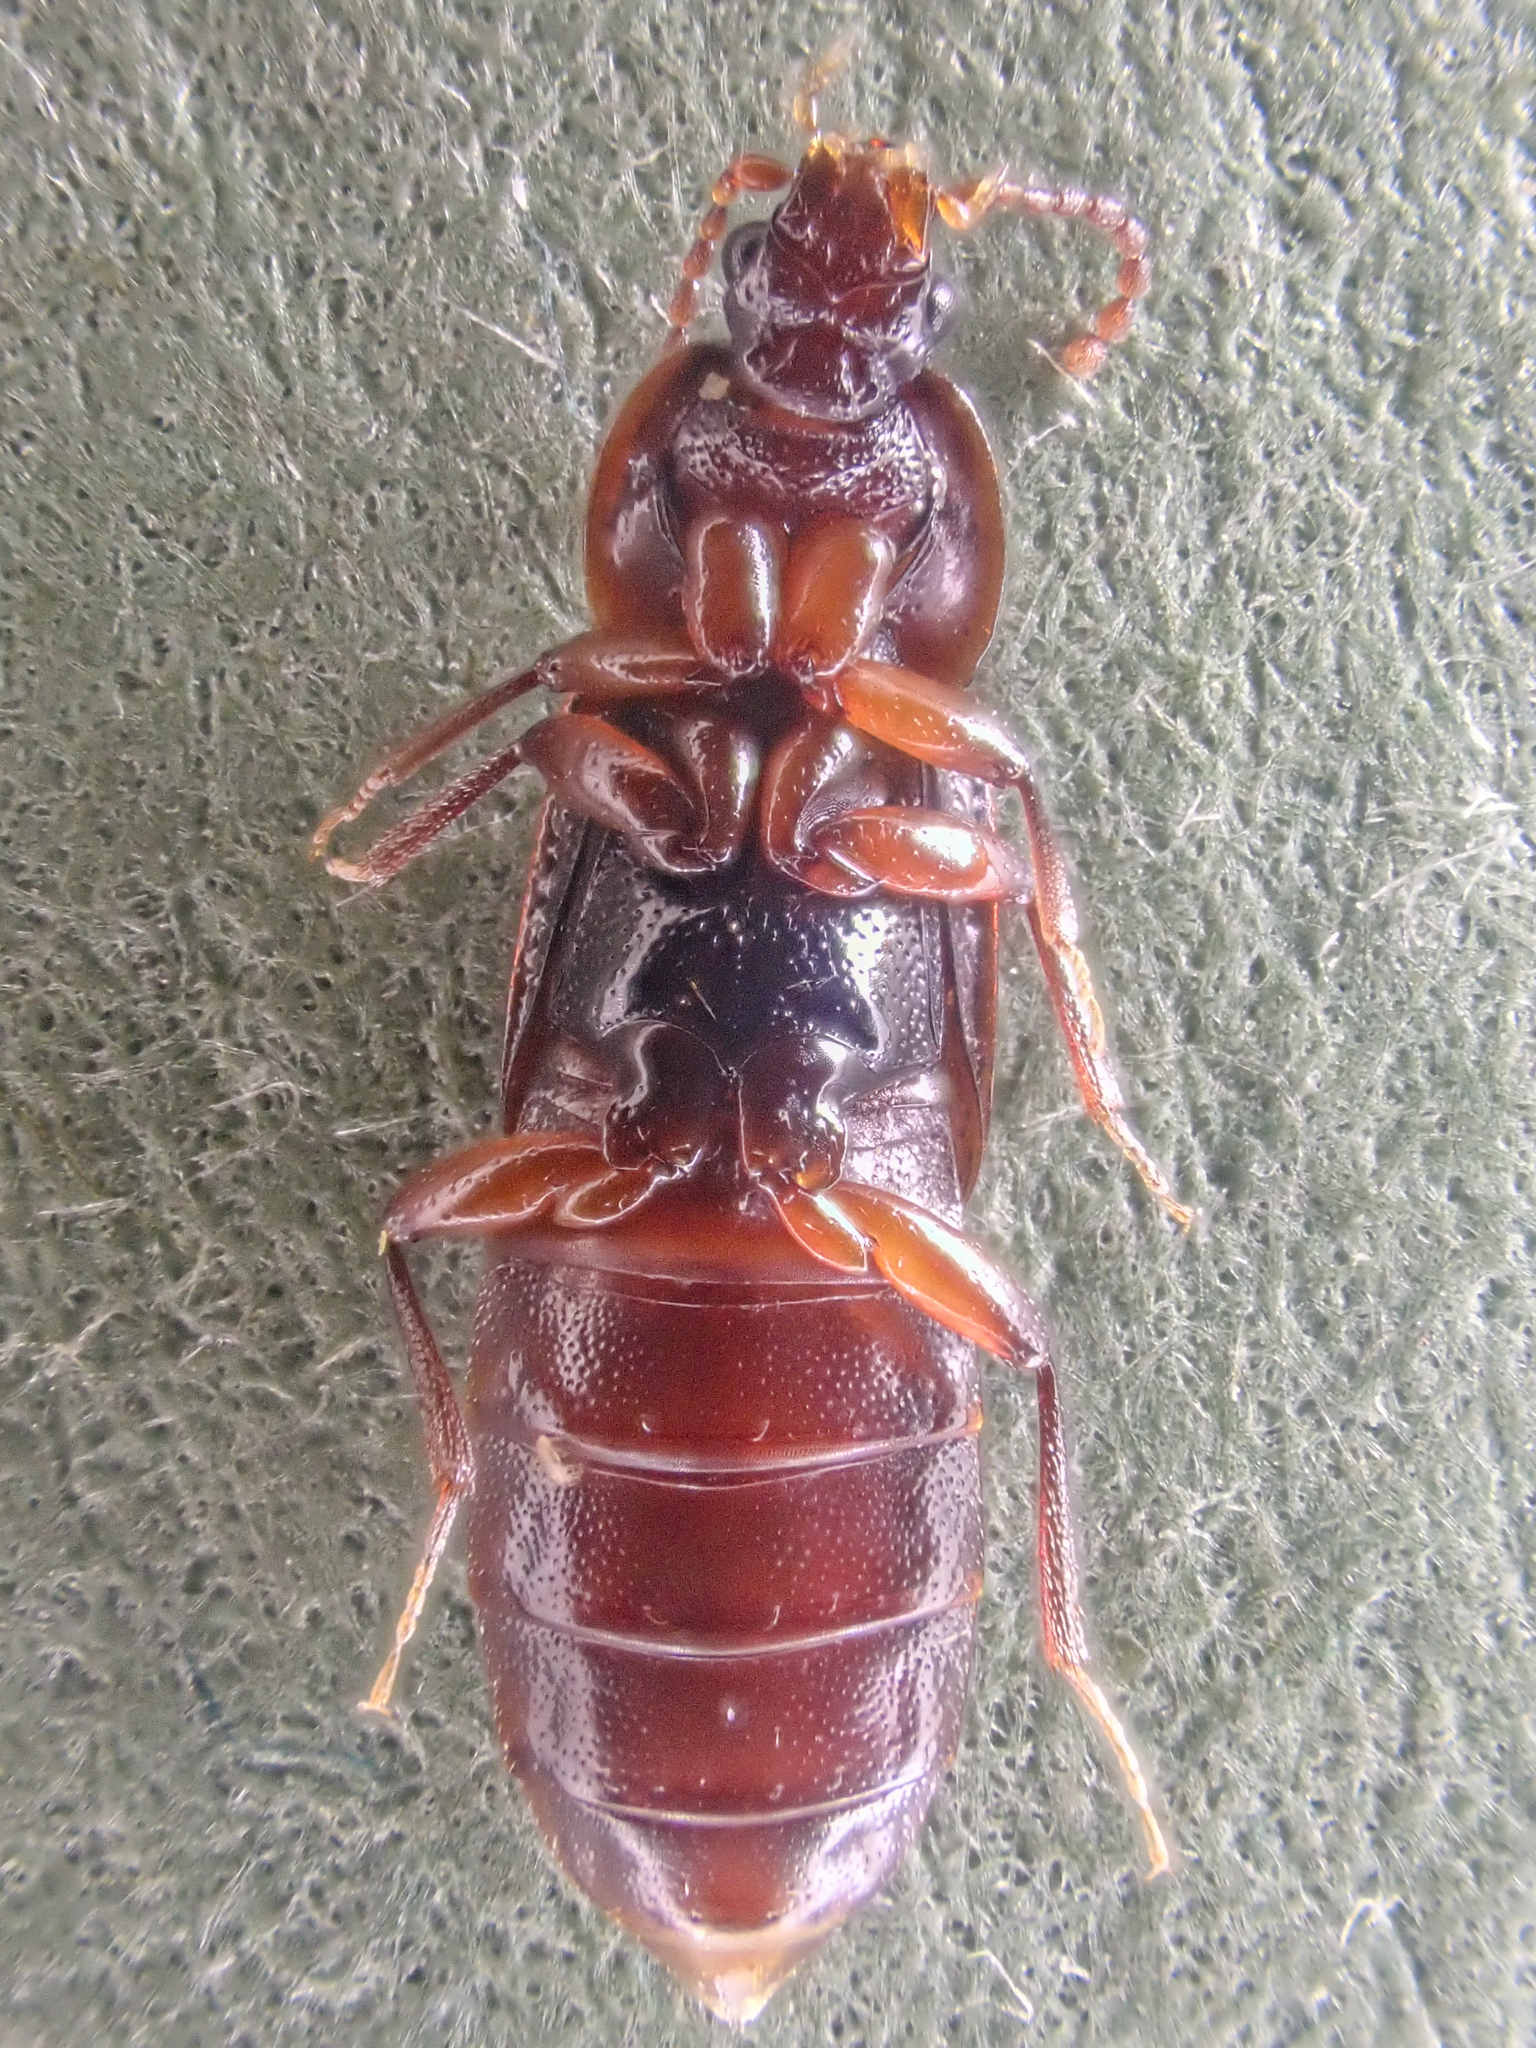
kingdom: Animalia
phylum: Arthropoda
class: Insecta
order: Coleoptera
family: Staphylinidae
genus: Acidota
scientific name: Acidota crenata
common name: Staph beetle
